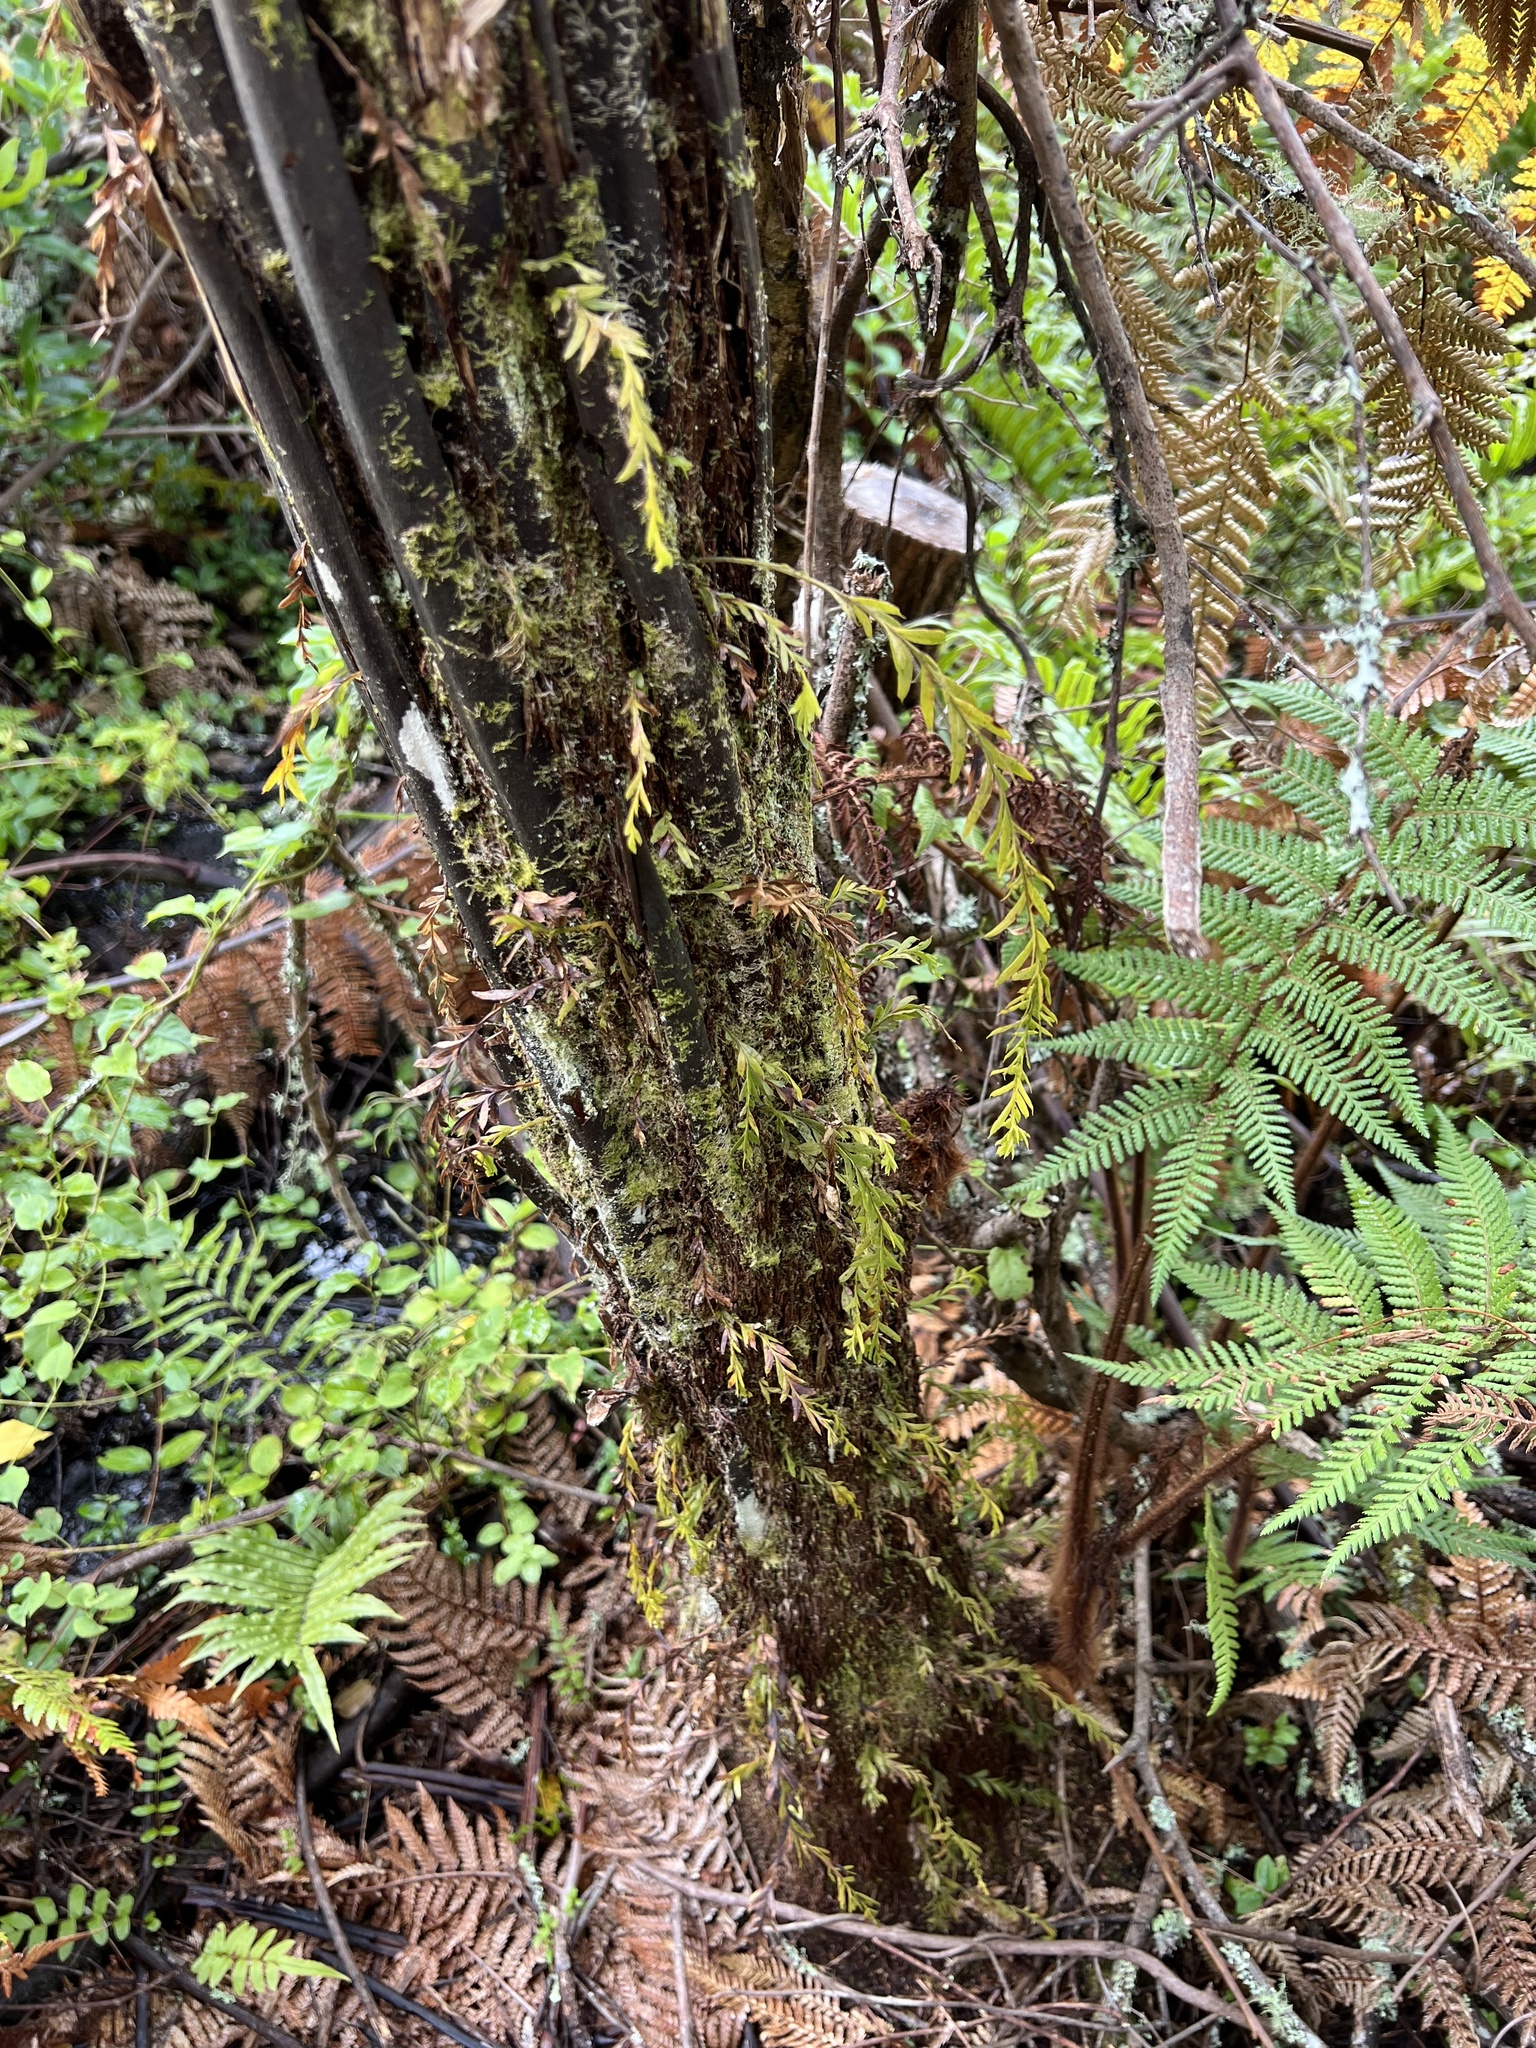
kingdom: Plantae
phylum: Tracheophyta
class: Polypodiopsida
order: Psilotales
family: Psilotaceae
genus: Tmesipteris
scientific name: Tmesipteris elongata
